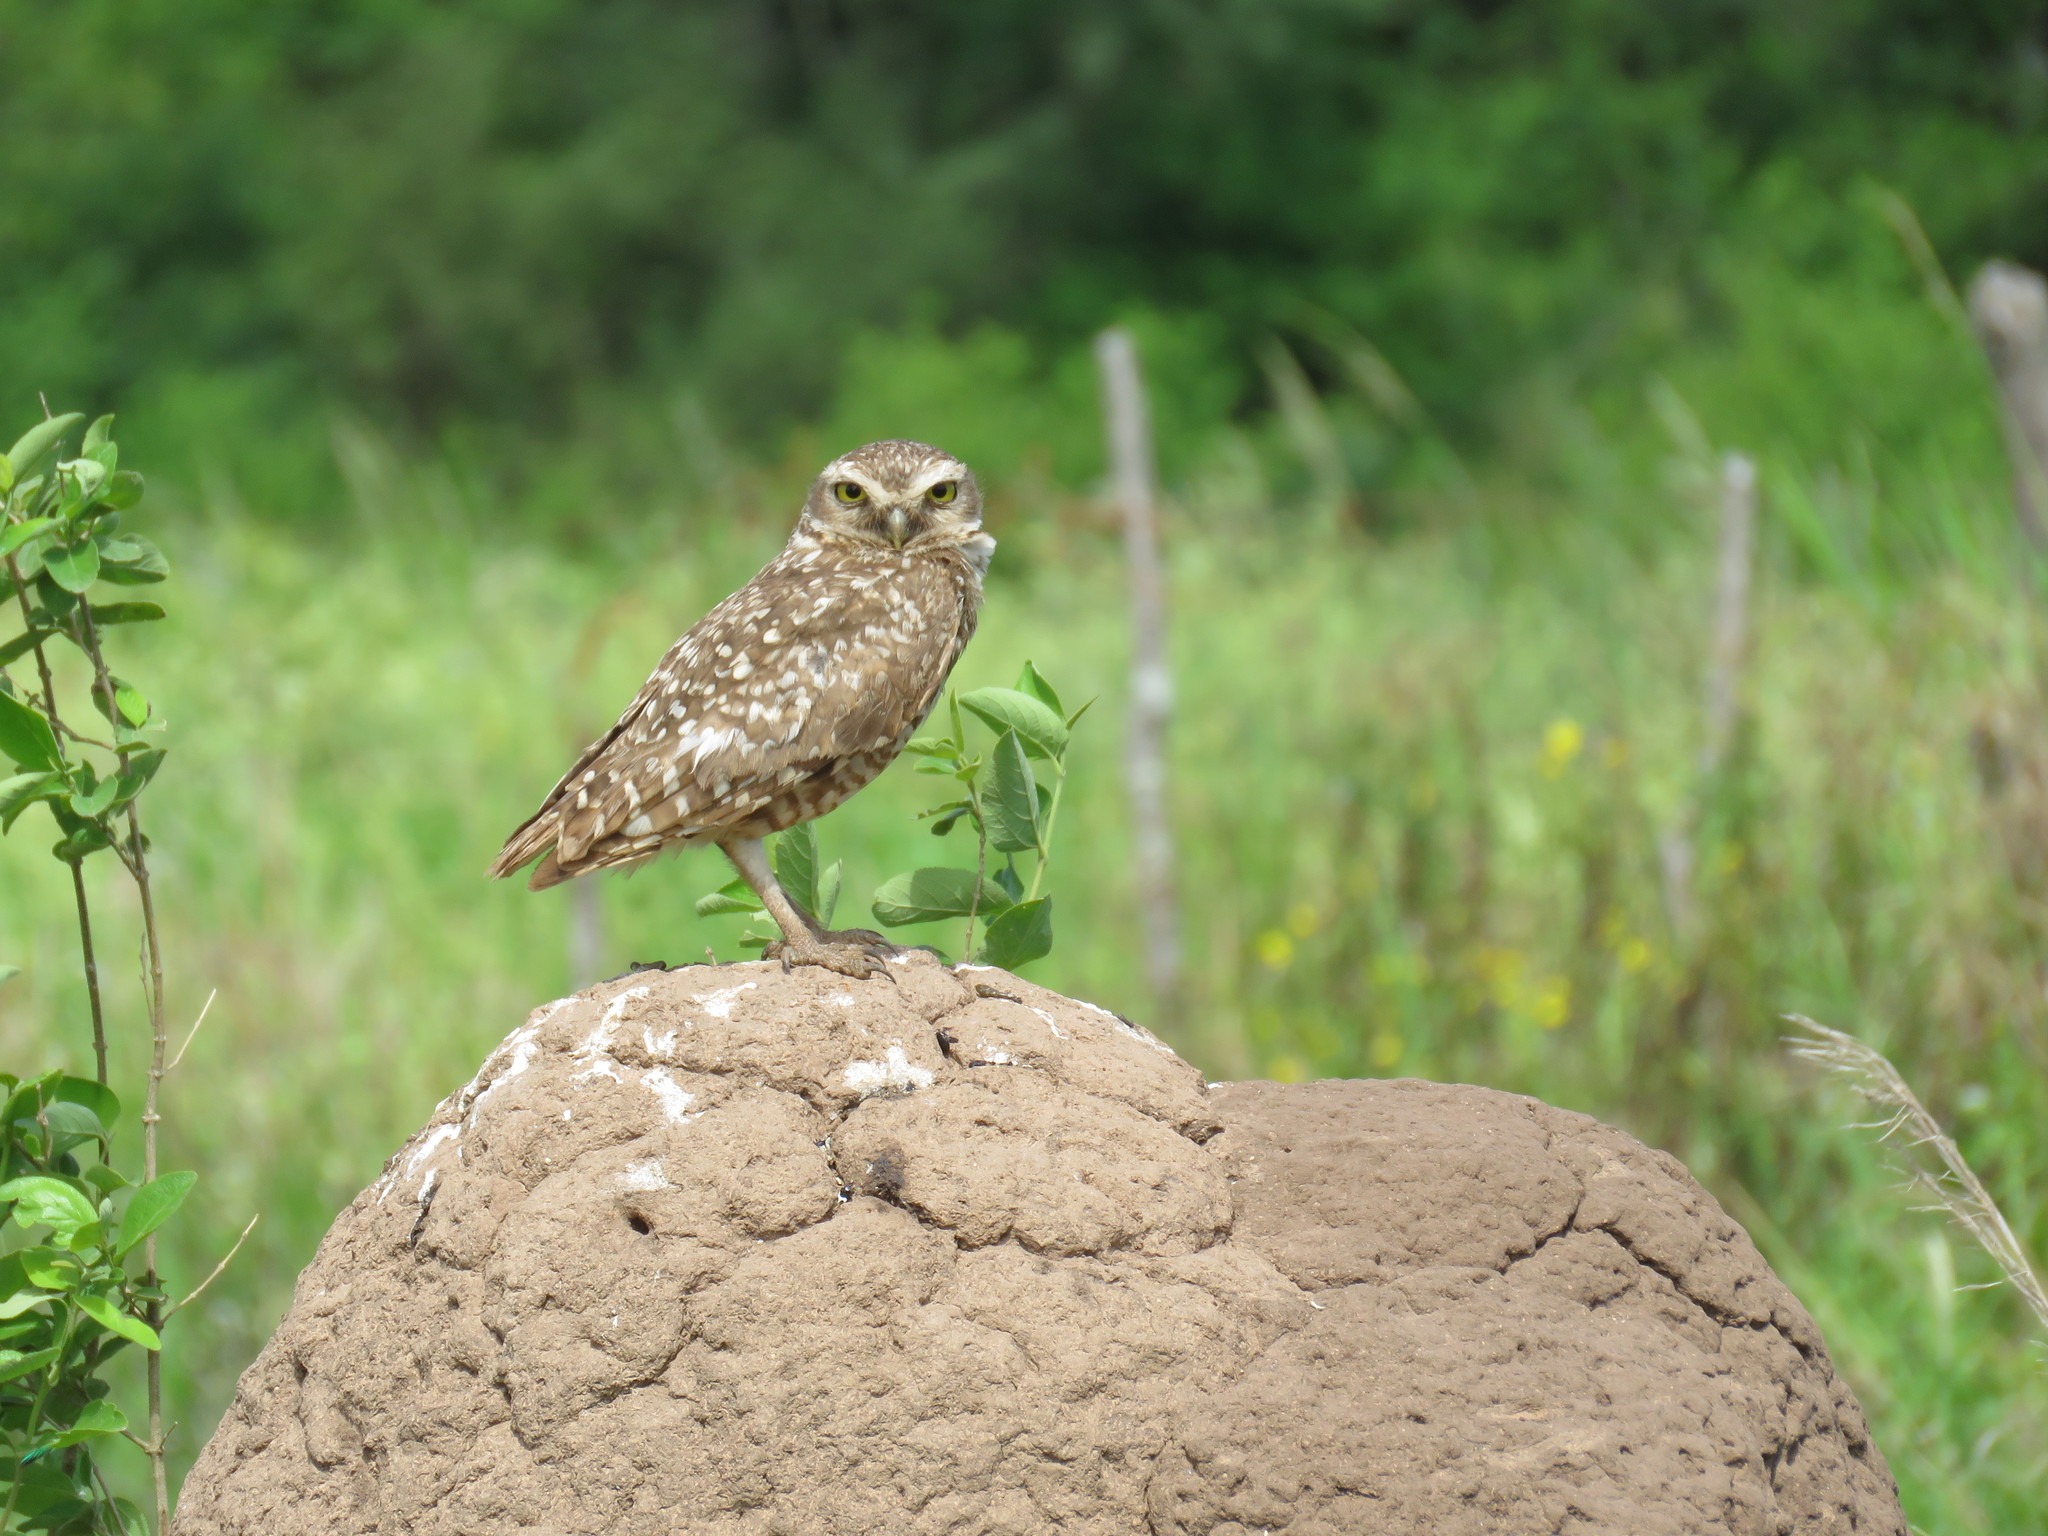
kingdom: Animalia
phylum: Chordata
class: Aves
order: Strigiformes
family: Strigidae
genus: Athene
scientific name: Athene cunicularia
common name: Burrowing owl
